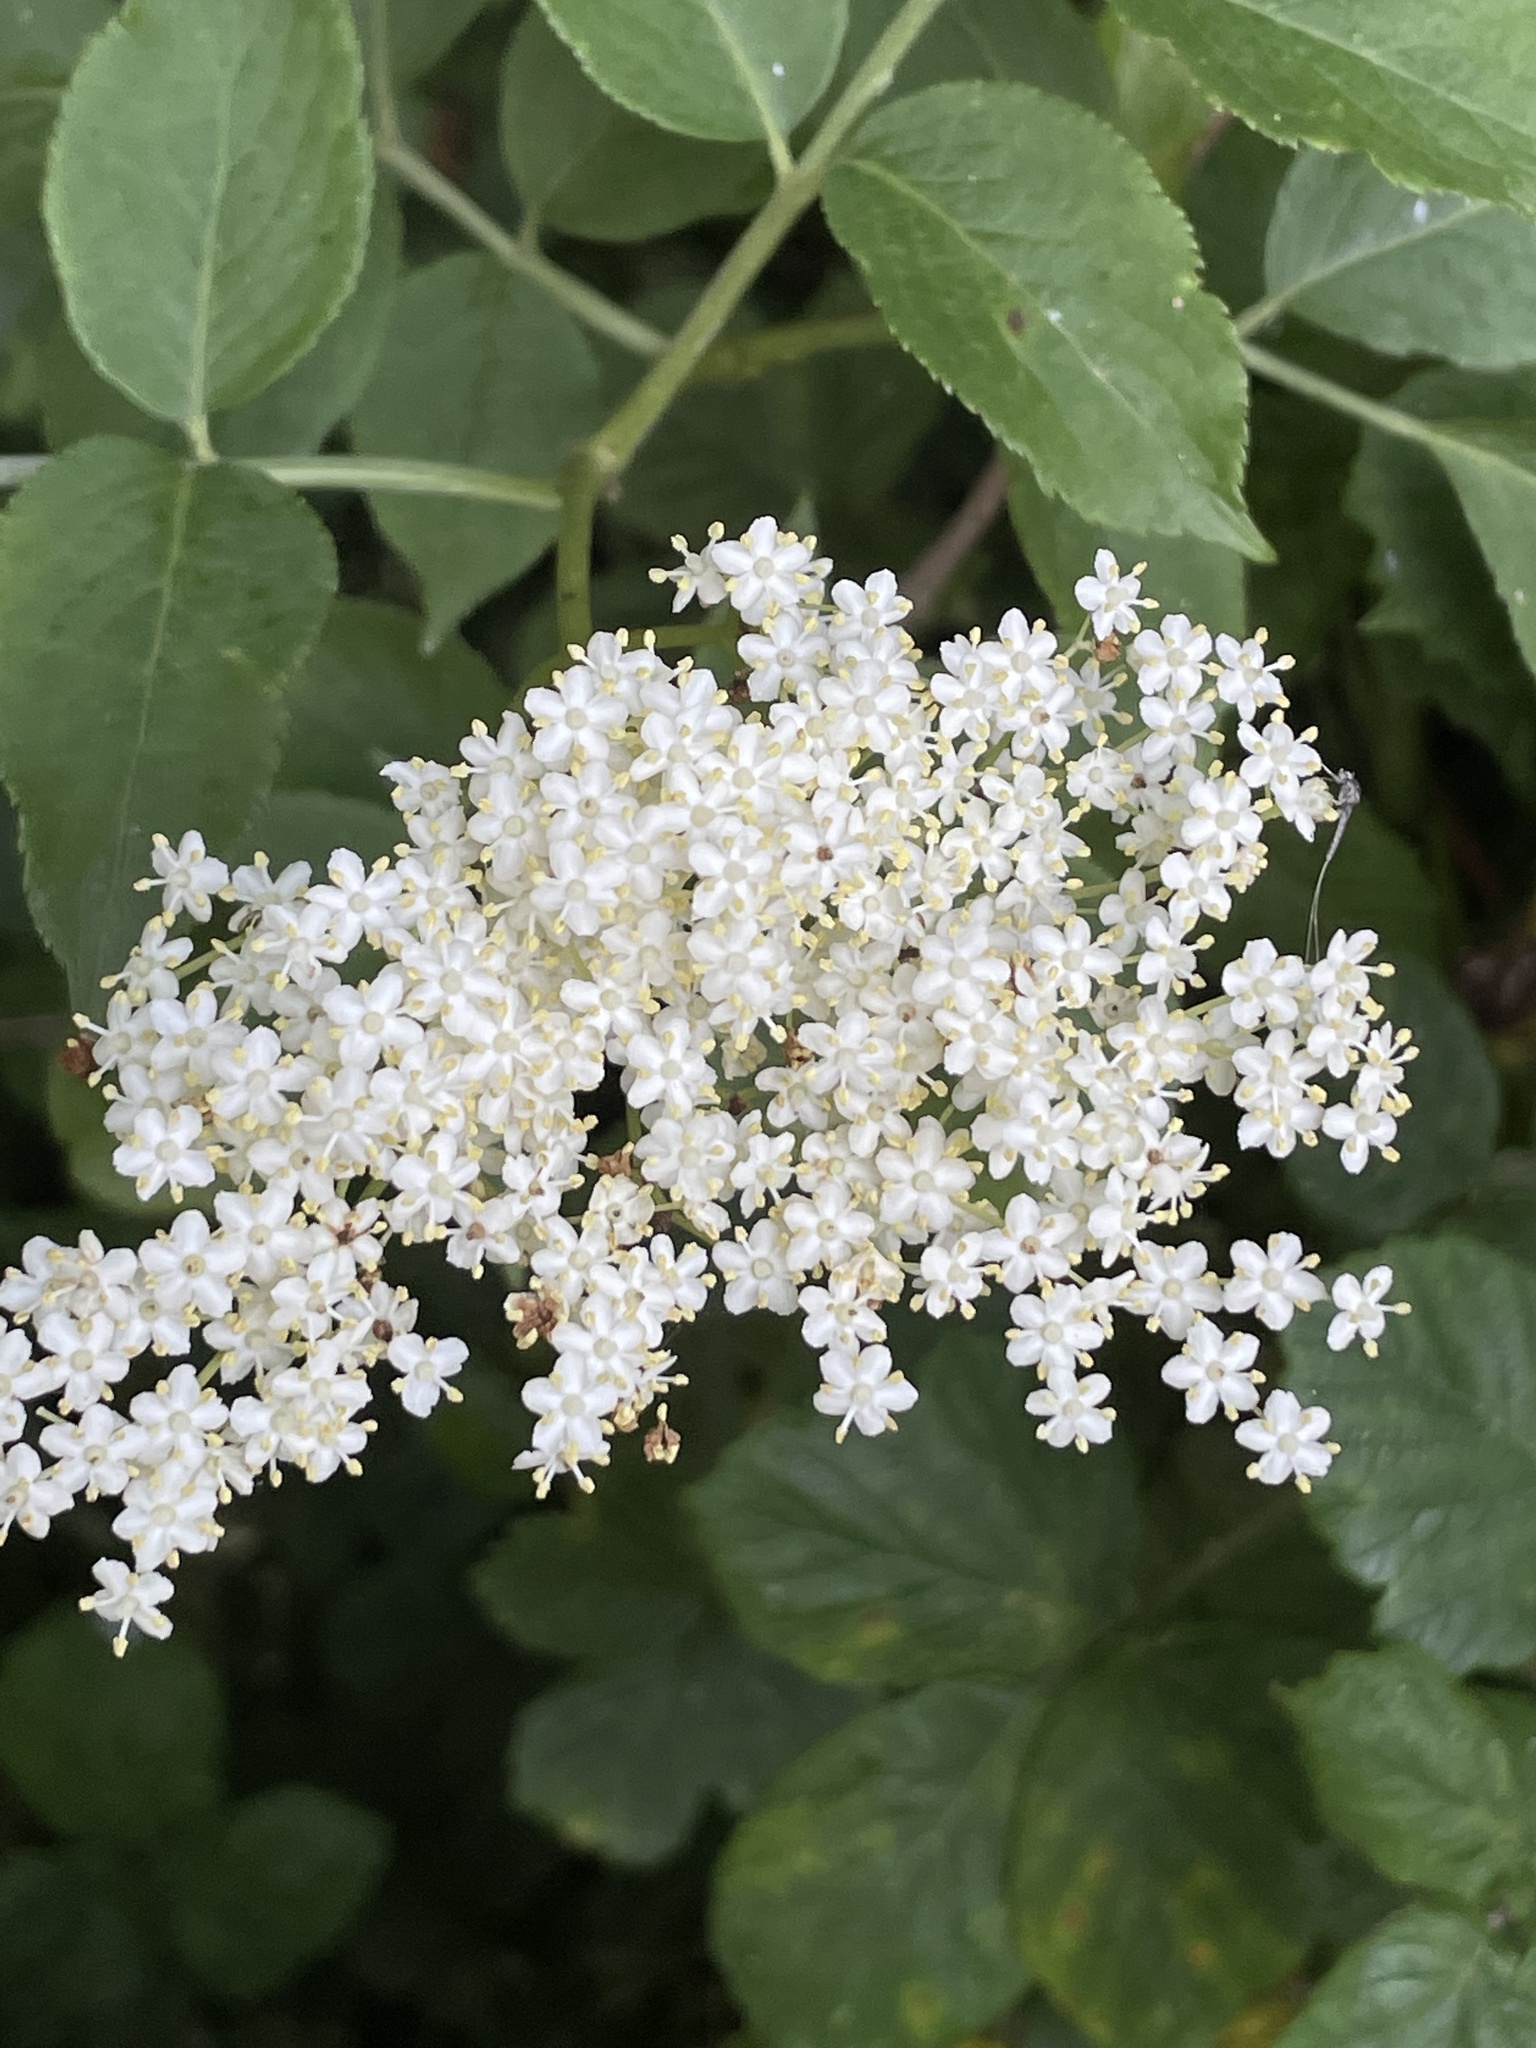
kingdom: Plantae
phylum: Tracheophyta
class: Magnoliopsida
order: Dipsacales
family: Viburnaceae
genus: Sambucus
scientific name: Sambucus nigra
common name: Elder
